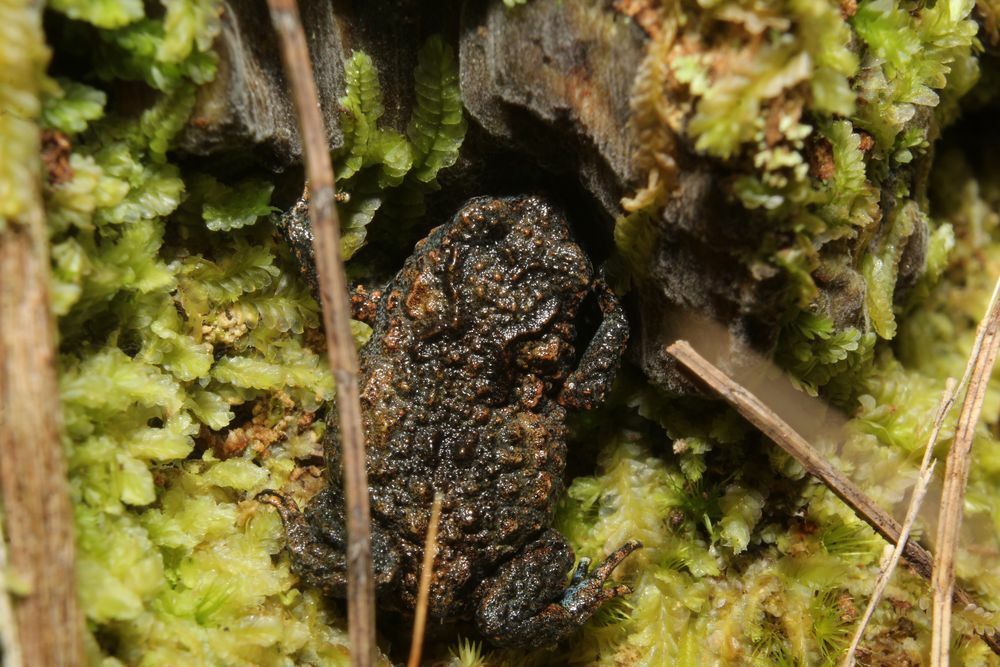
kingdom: Animalia
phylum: Chordata
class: Amphibia
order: Anura
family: Myobatrachidae
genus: Metacrinia
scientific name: Metacrinia nichollsi
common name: Nicholl’s toadlet
